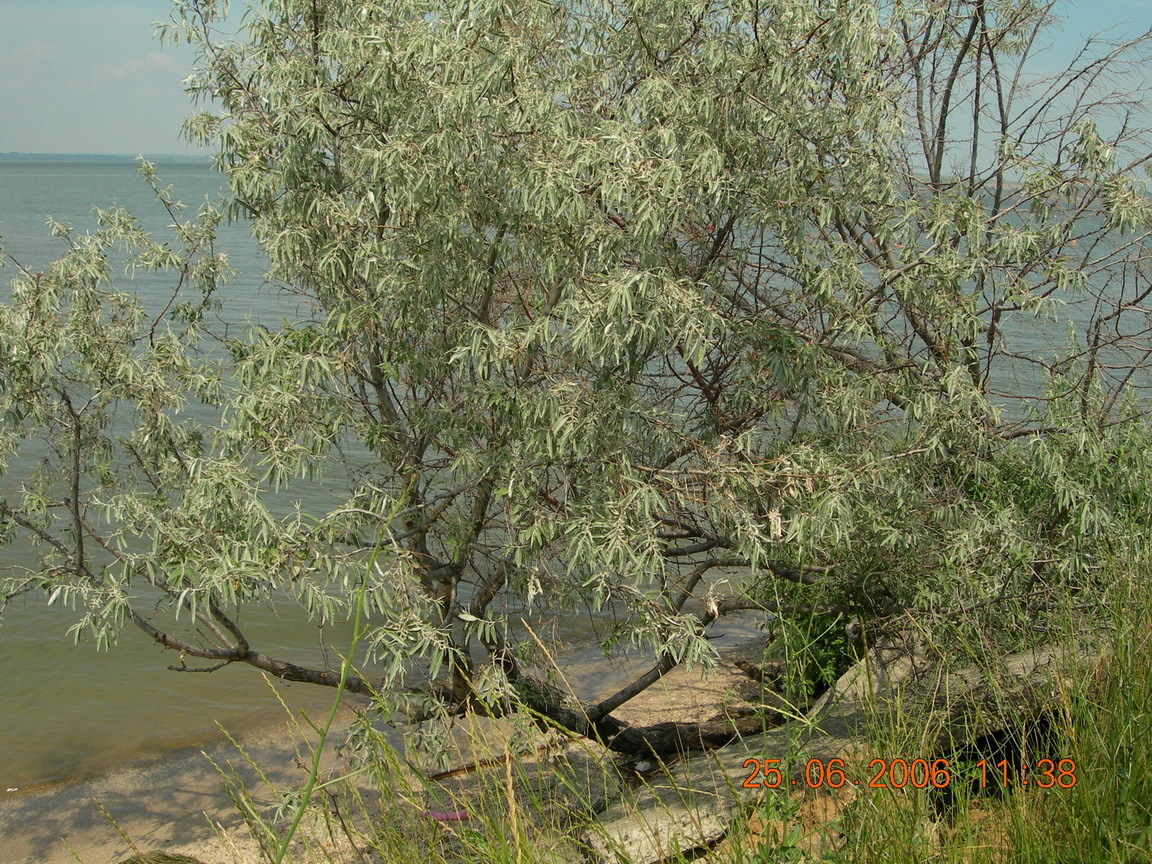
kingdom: Plantae
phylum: Tracheophyta
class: Magnoliopsida
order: Rosales
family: Elaeagnaceae
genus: Elaeagnus
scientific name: Elaeagnus angustifolia
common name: Russian olive
